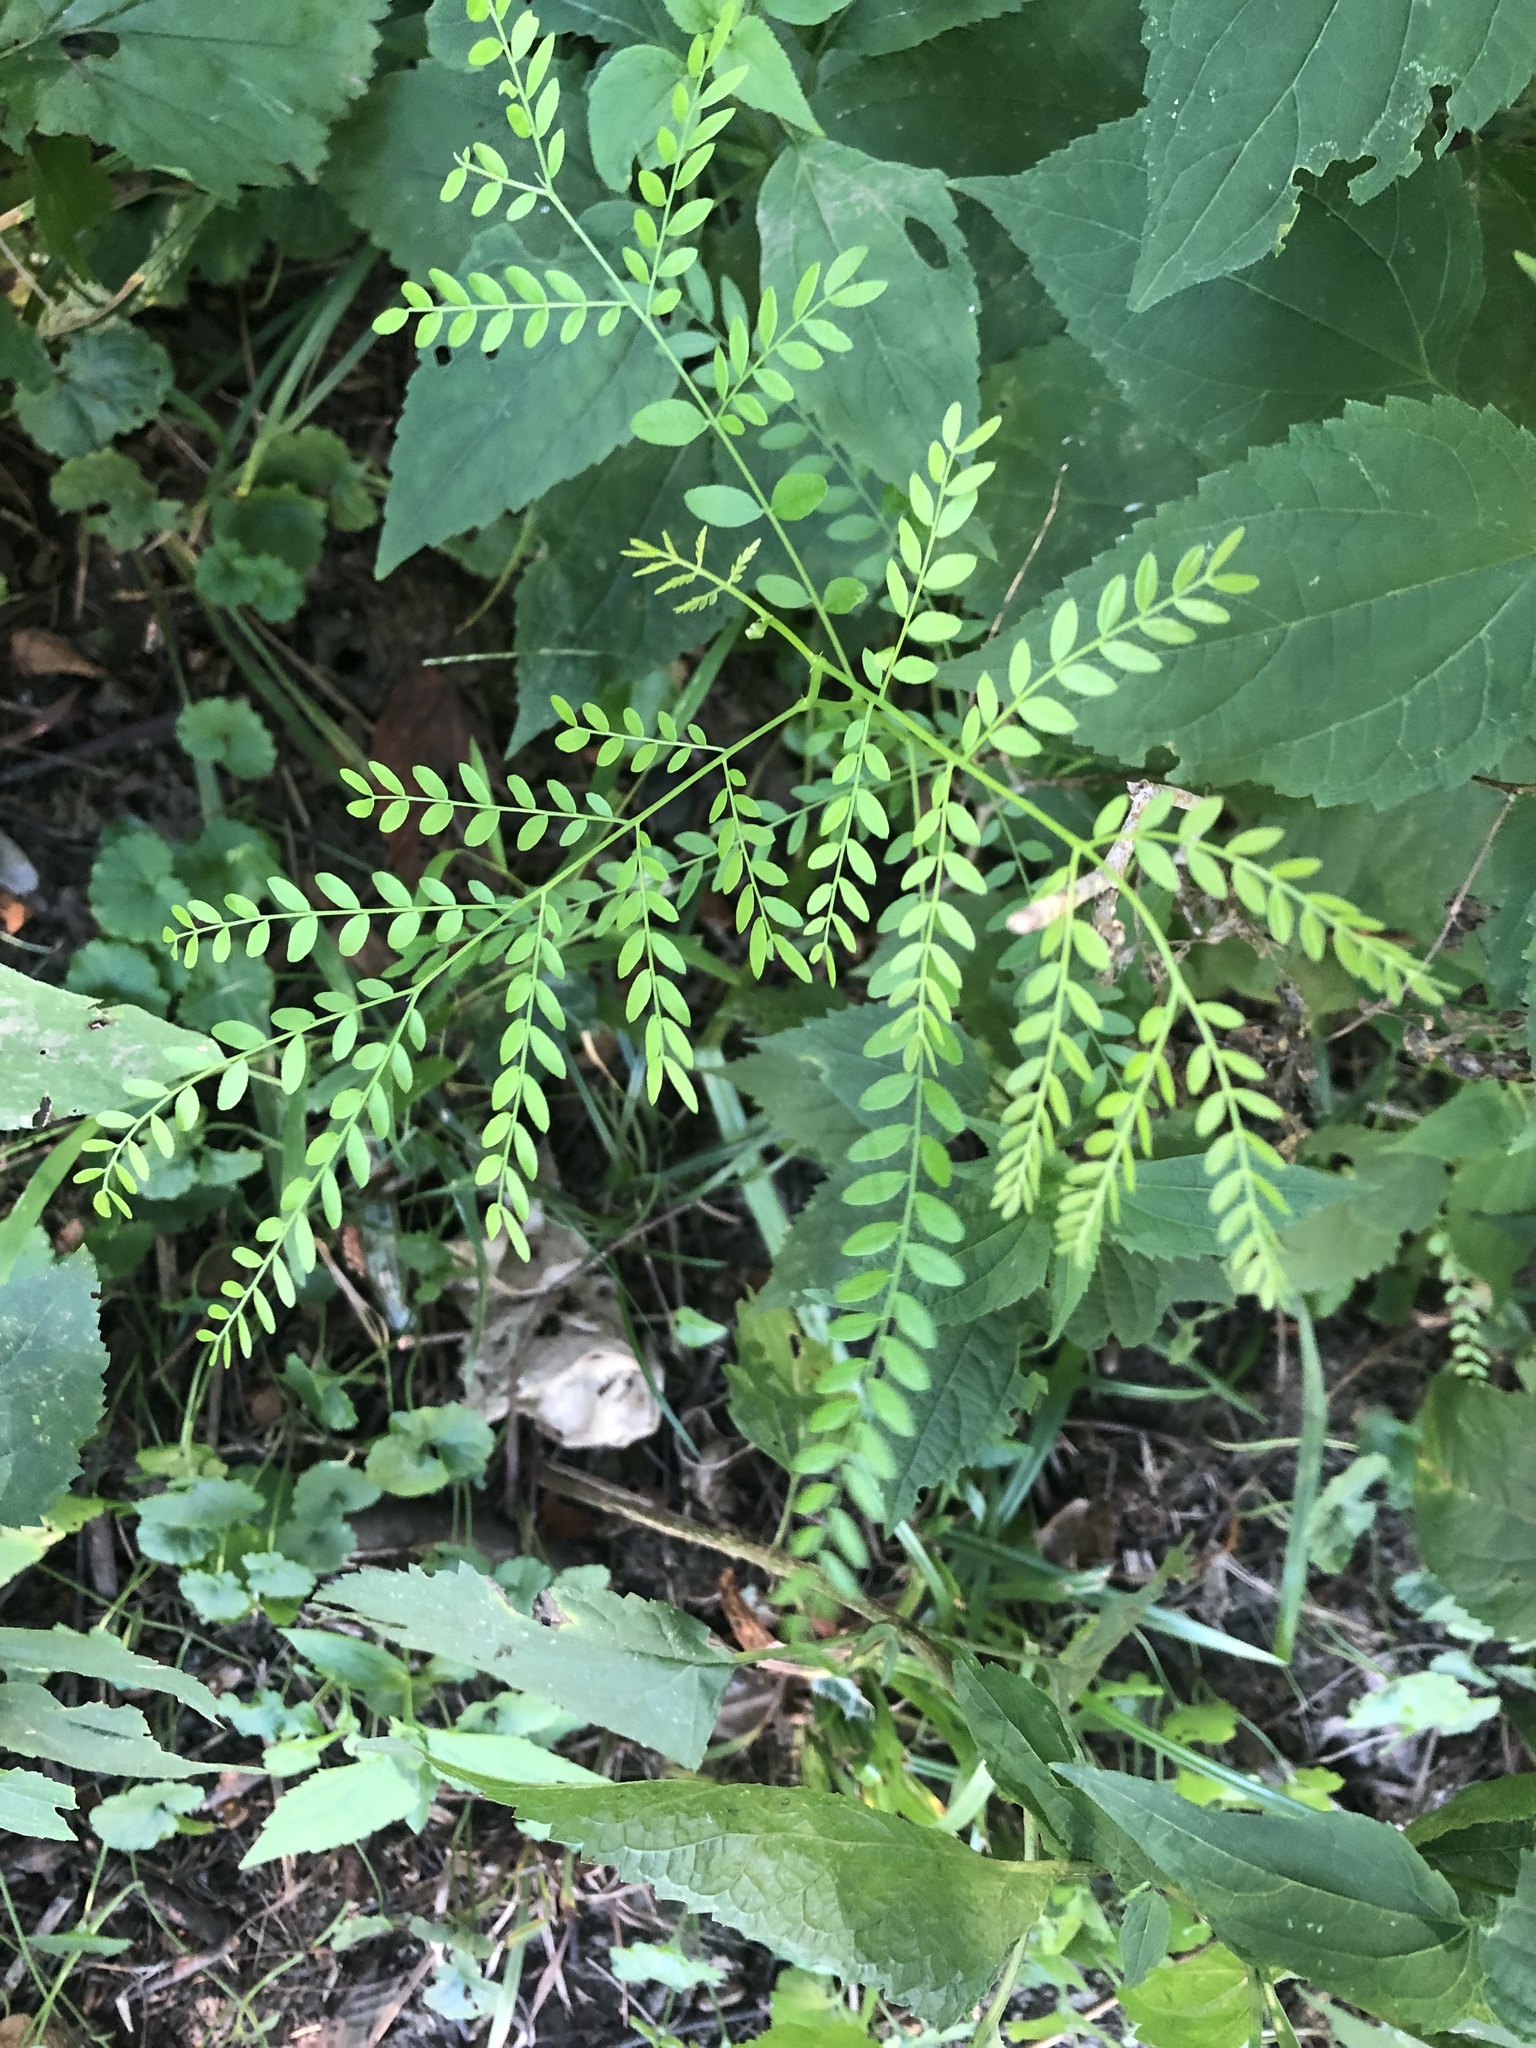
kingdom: Plantae
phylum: Tracheophyta
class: Magnoliopsida
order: Fabales
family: Fabaceae
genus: Gleditsia
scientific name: Gleditsia triacanthos
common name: Common honeylocust
